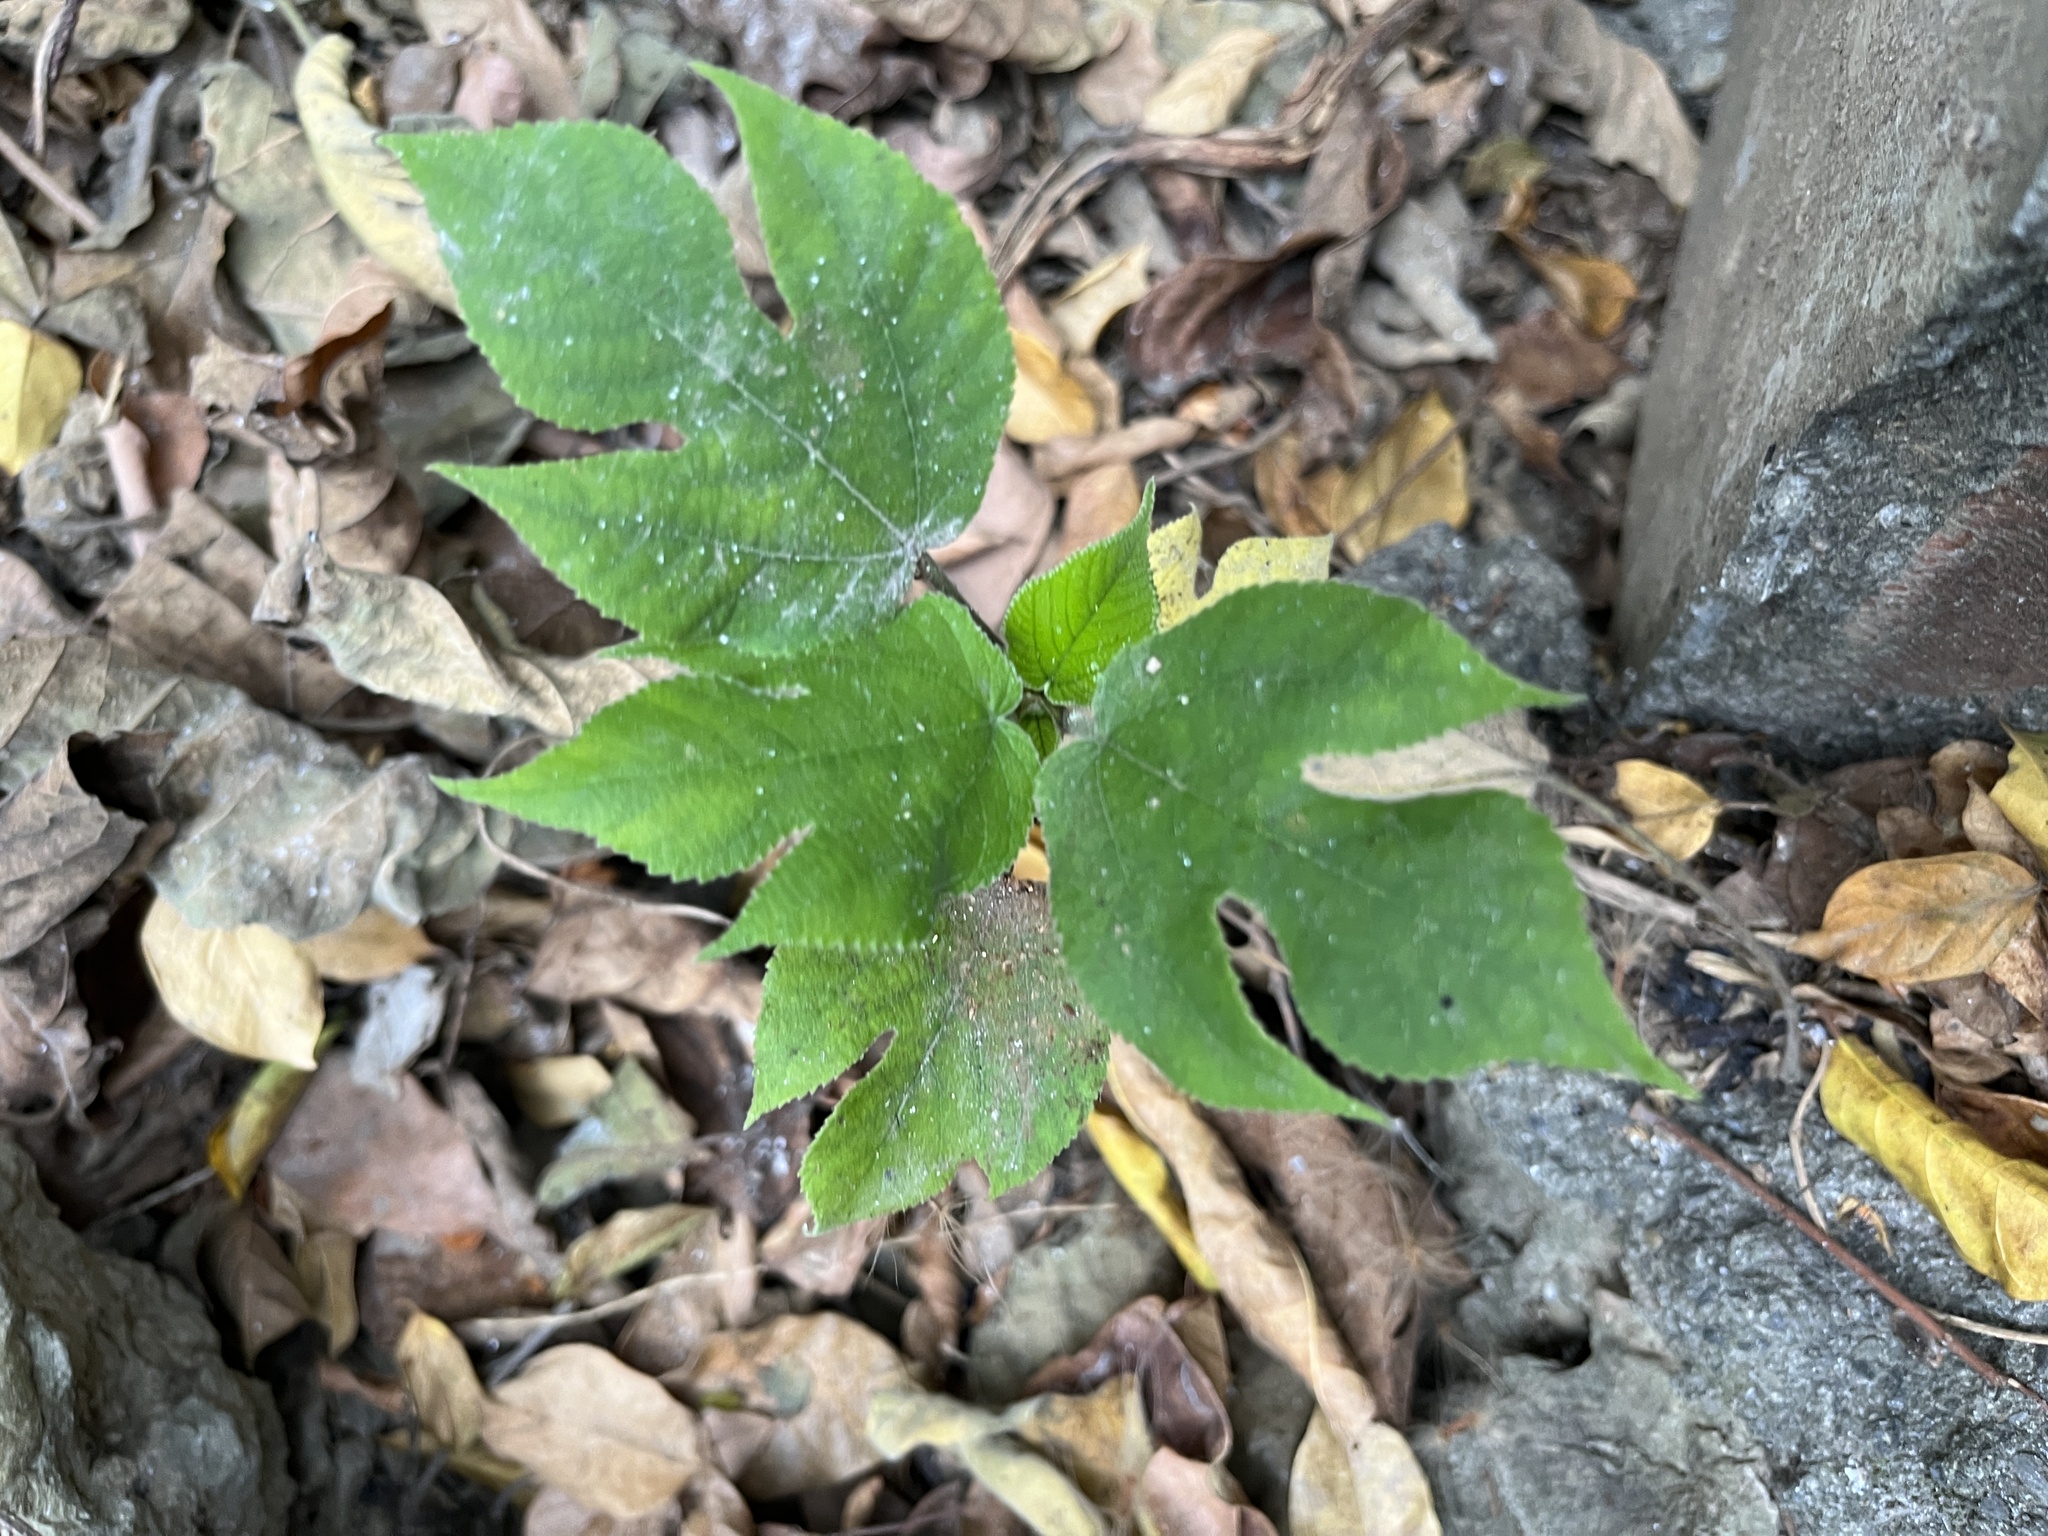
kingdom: Plantae
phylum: Tracheophyta
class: Magnoliopsida
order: Rosales
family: Moraceae
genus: Broussonetia
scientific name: Broussonetia papyrifera
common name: Paper mulberry
